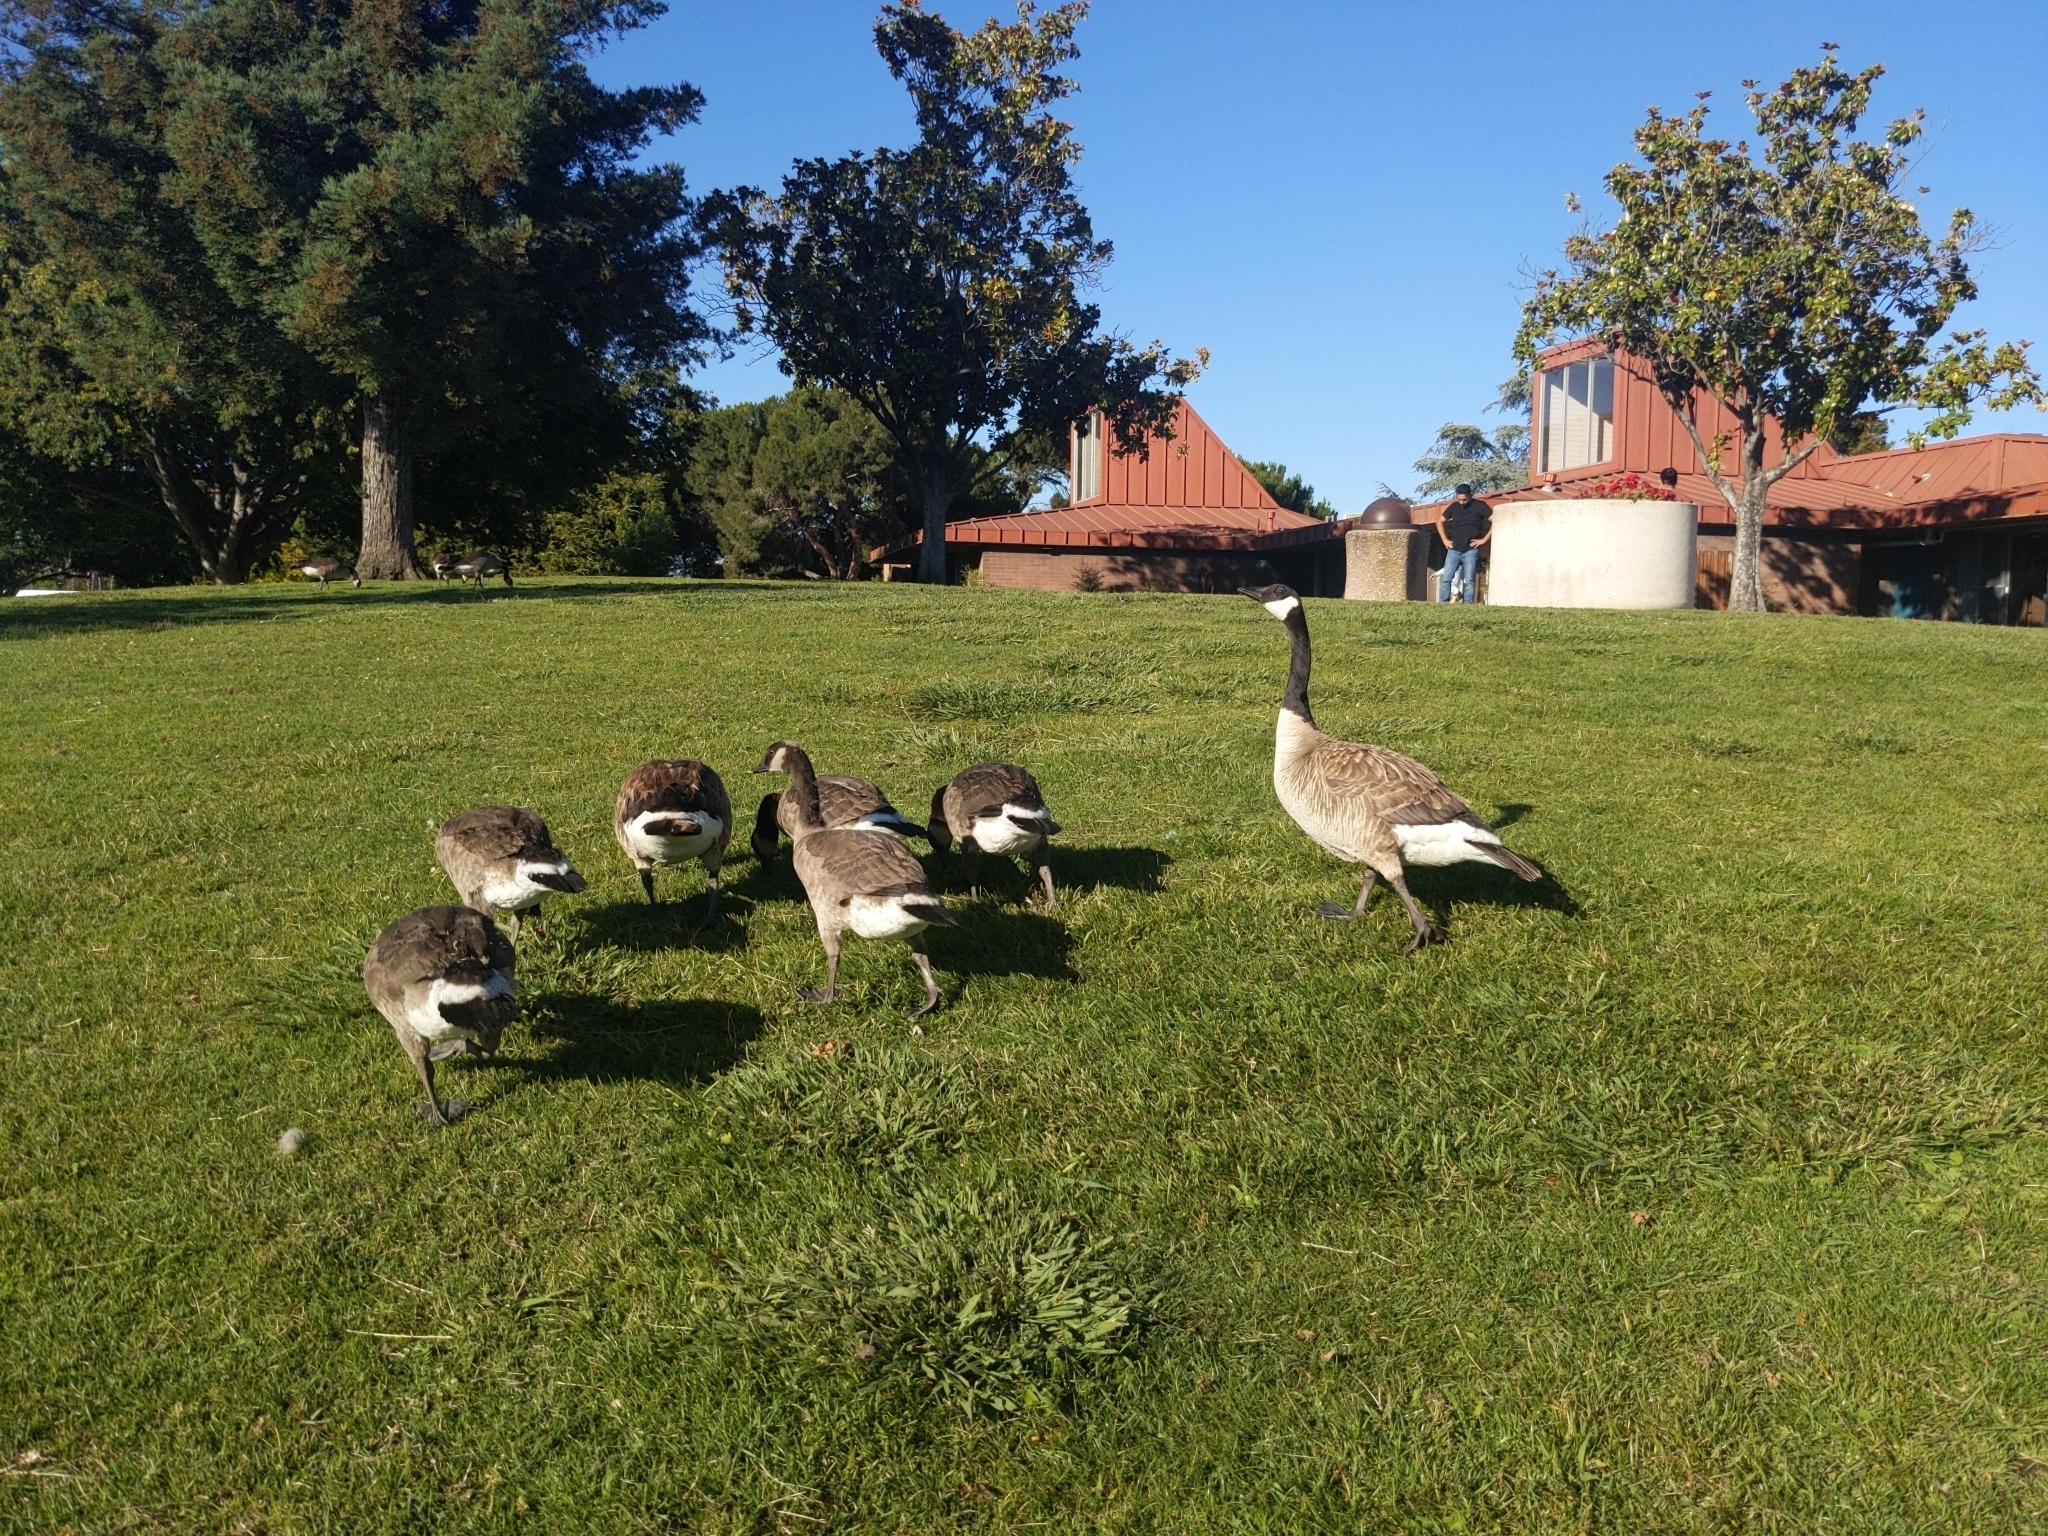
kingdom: Animalia
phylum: Chordata
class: Aves
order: Anseriformes
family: Anatidae
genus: Branta
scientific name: Branta canadensis
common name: Canada goose
